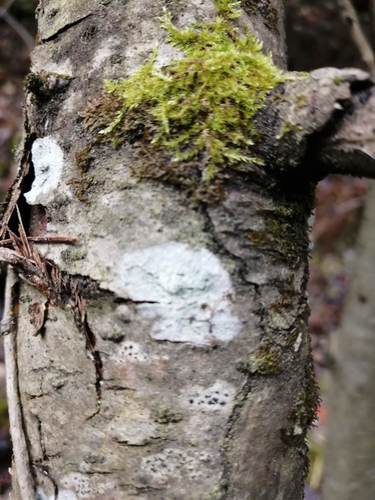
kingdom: Fungi
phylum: Ascomycota
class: Lecanoromycetes
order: Ostropales
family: Phlyctidaceae
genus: Phlyctis
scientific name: Phlyctis argena
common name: Whitewash lichen
